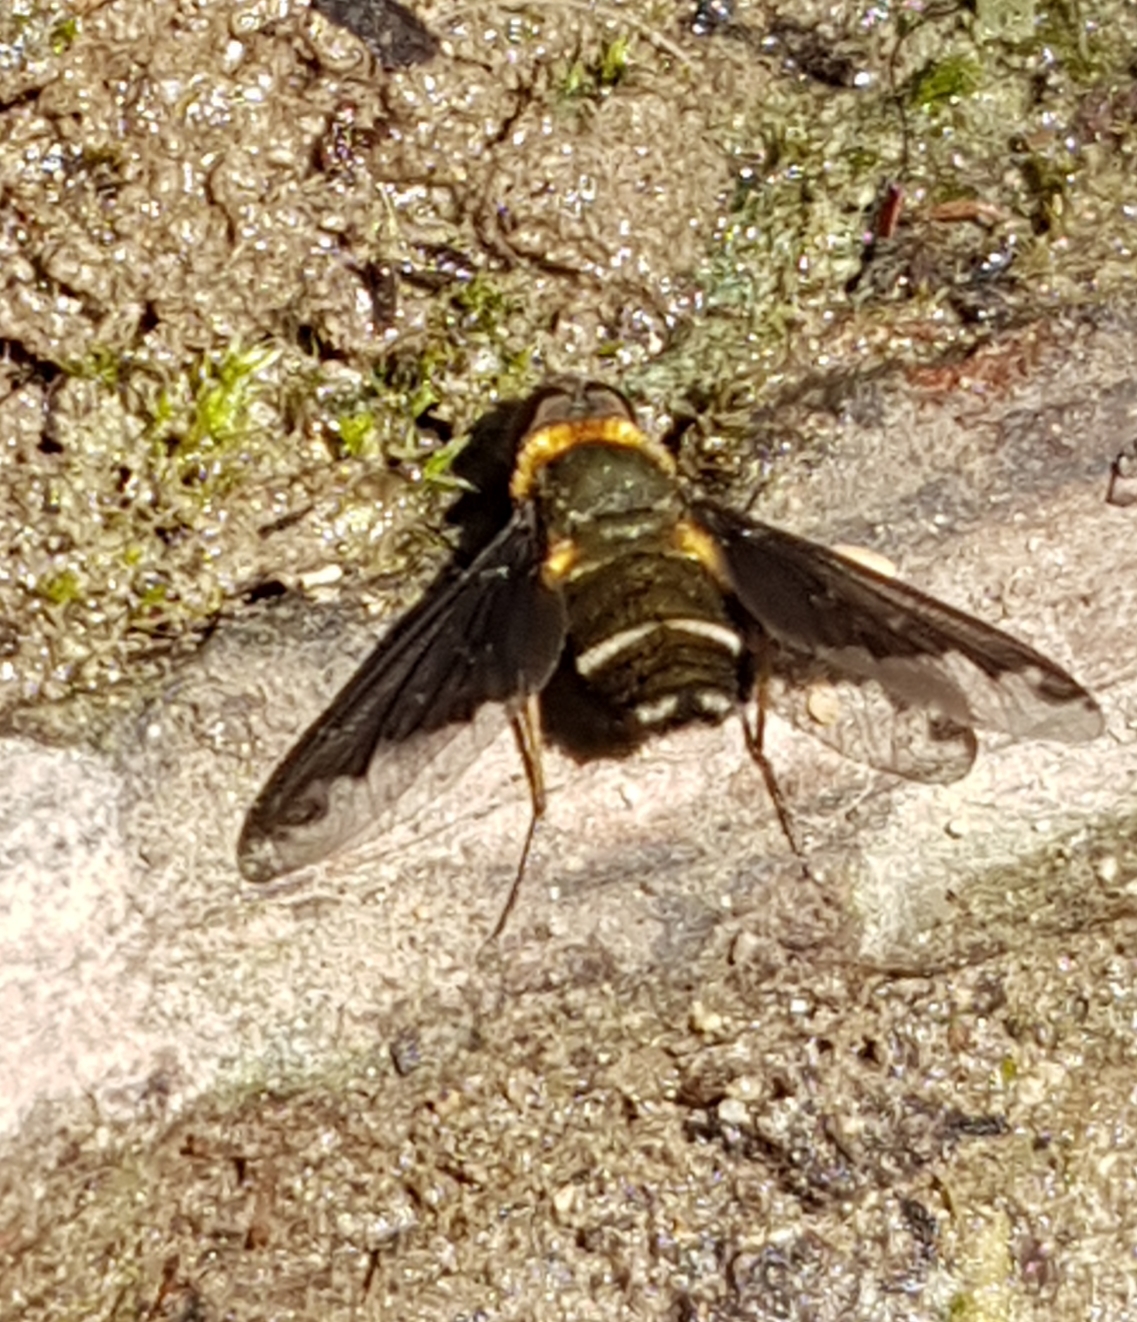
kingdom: Animalia
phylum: Arthropoda
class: Insecta
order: Diptera
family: Bombyliidae
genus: Hemipenthes
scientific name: Hemipenthes velutina
